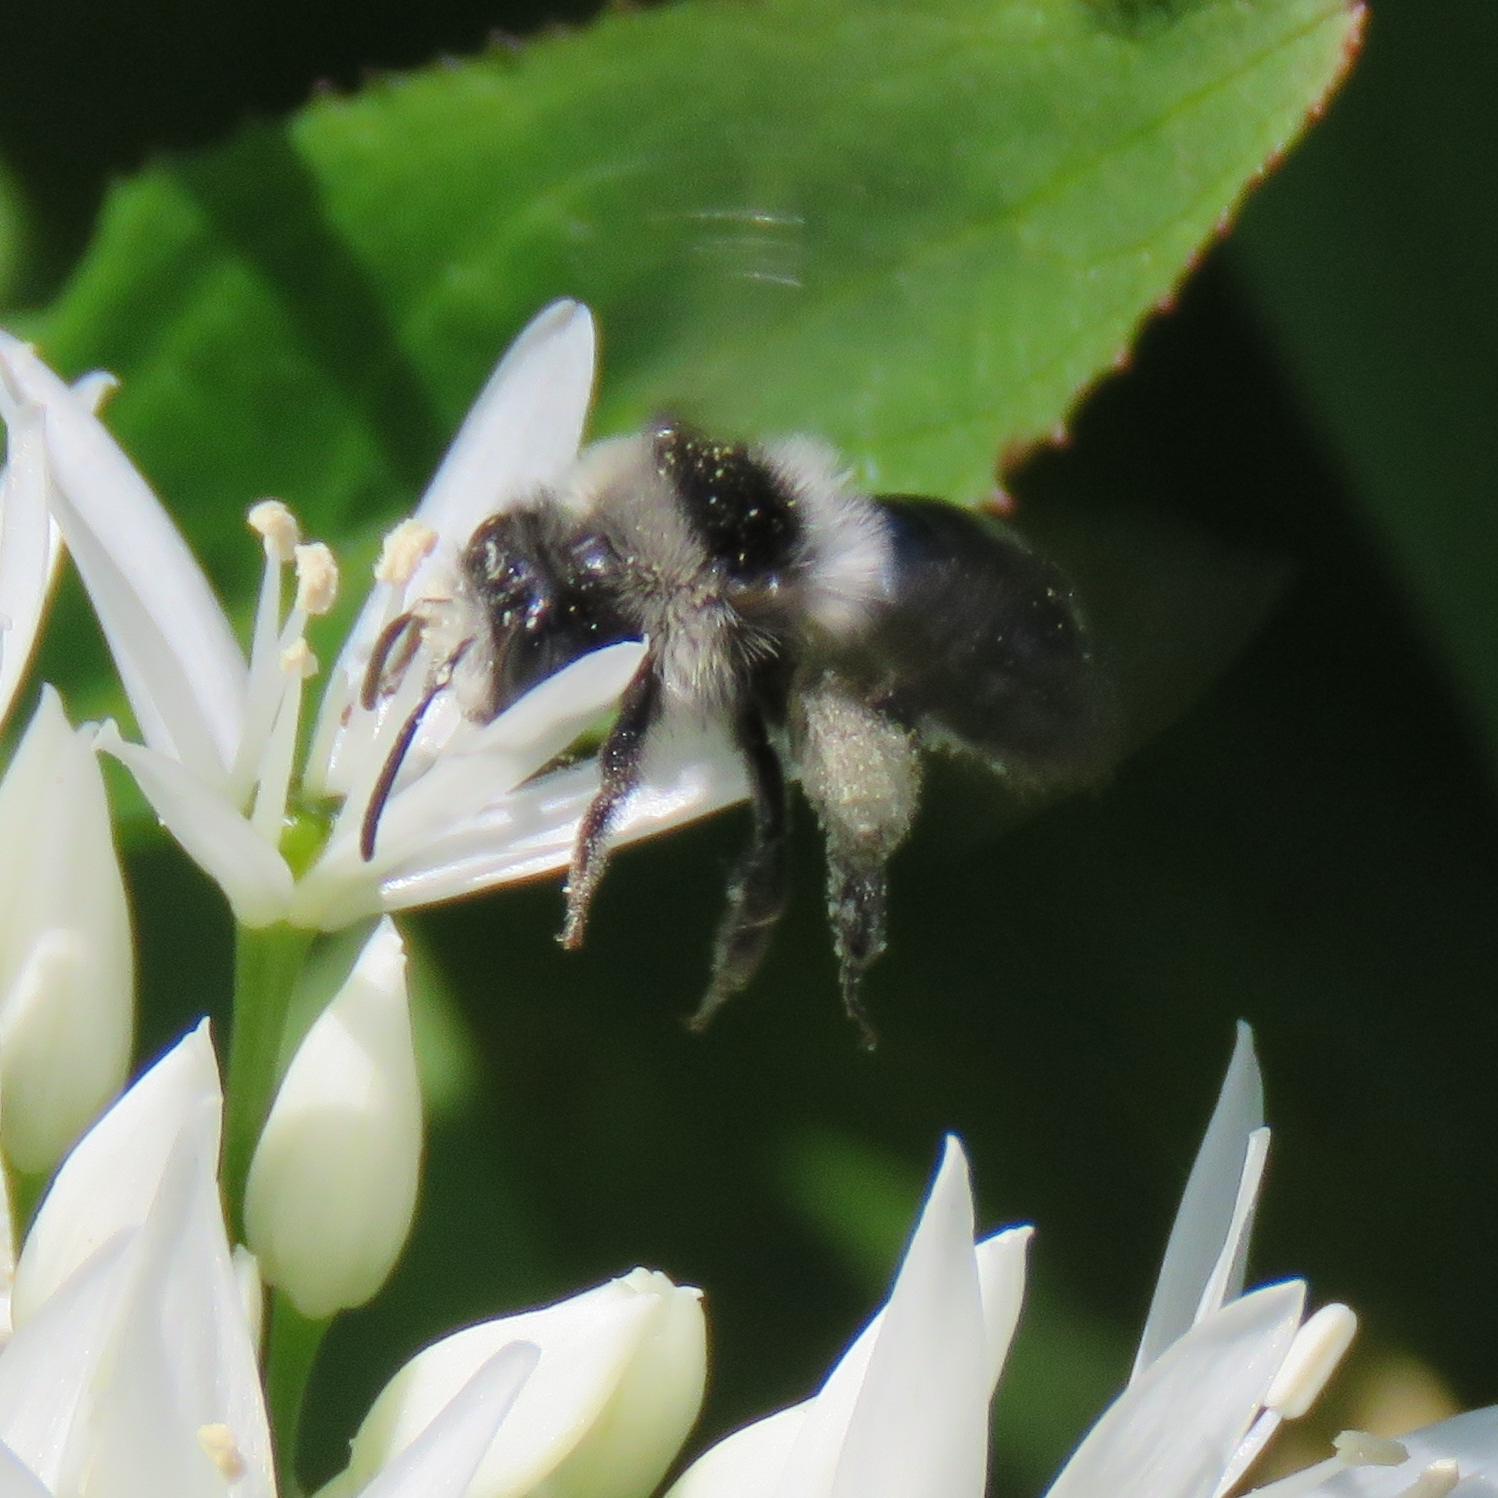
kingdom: Animalia
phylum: Arthropoda
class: Insecta
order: Hymenoptera
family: Andrenidae
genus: Andrena
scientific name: Andrena cineraria
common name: Ashy mining bee
